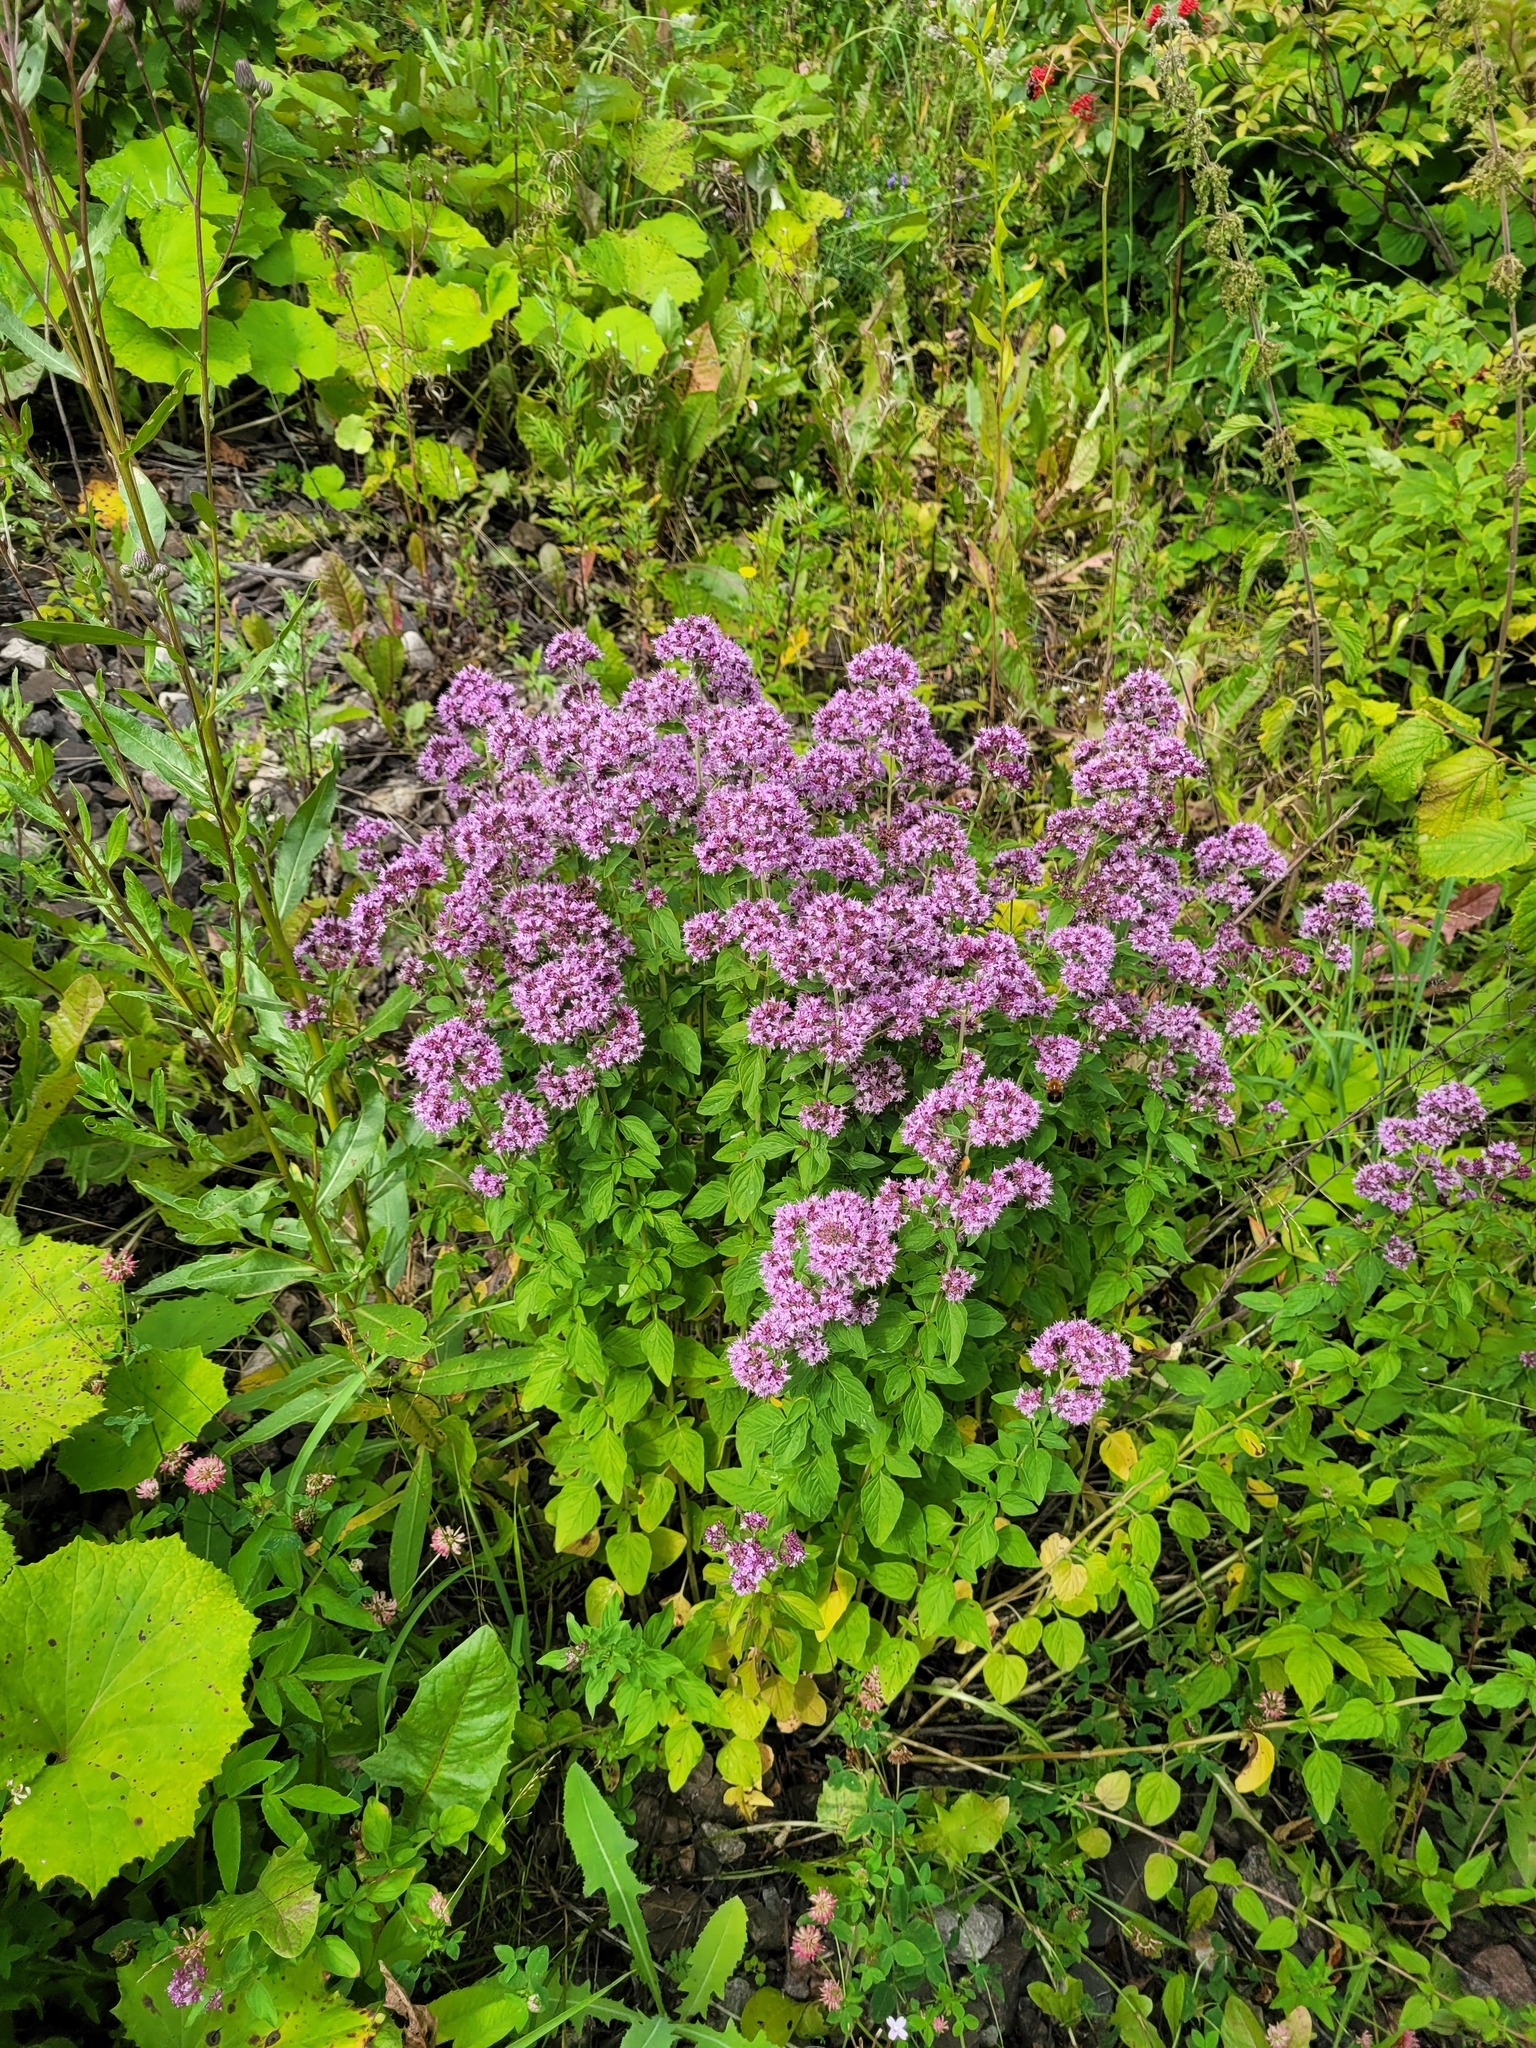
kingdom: Plantae
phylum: Tracheophyta
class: Magnoliopsida
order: Lamiales
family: Lamiaceae
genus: Origanum
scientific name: Origanum vulgare
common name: Wild marjoram
